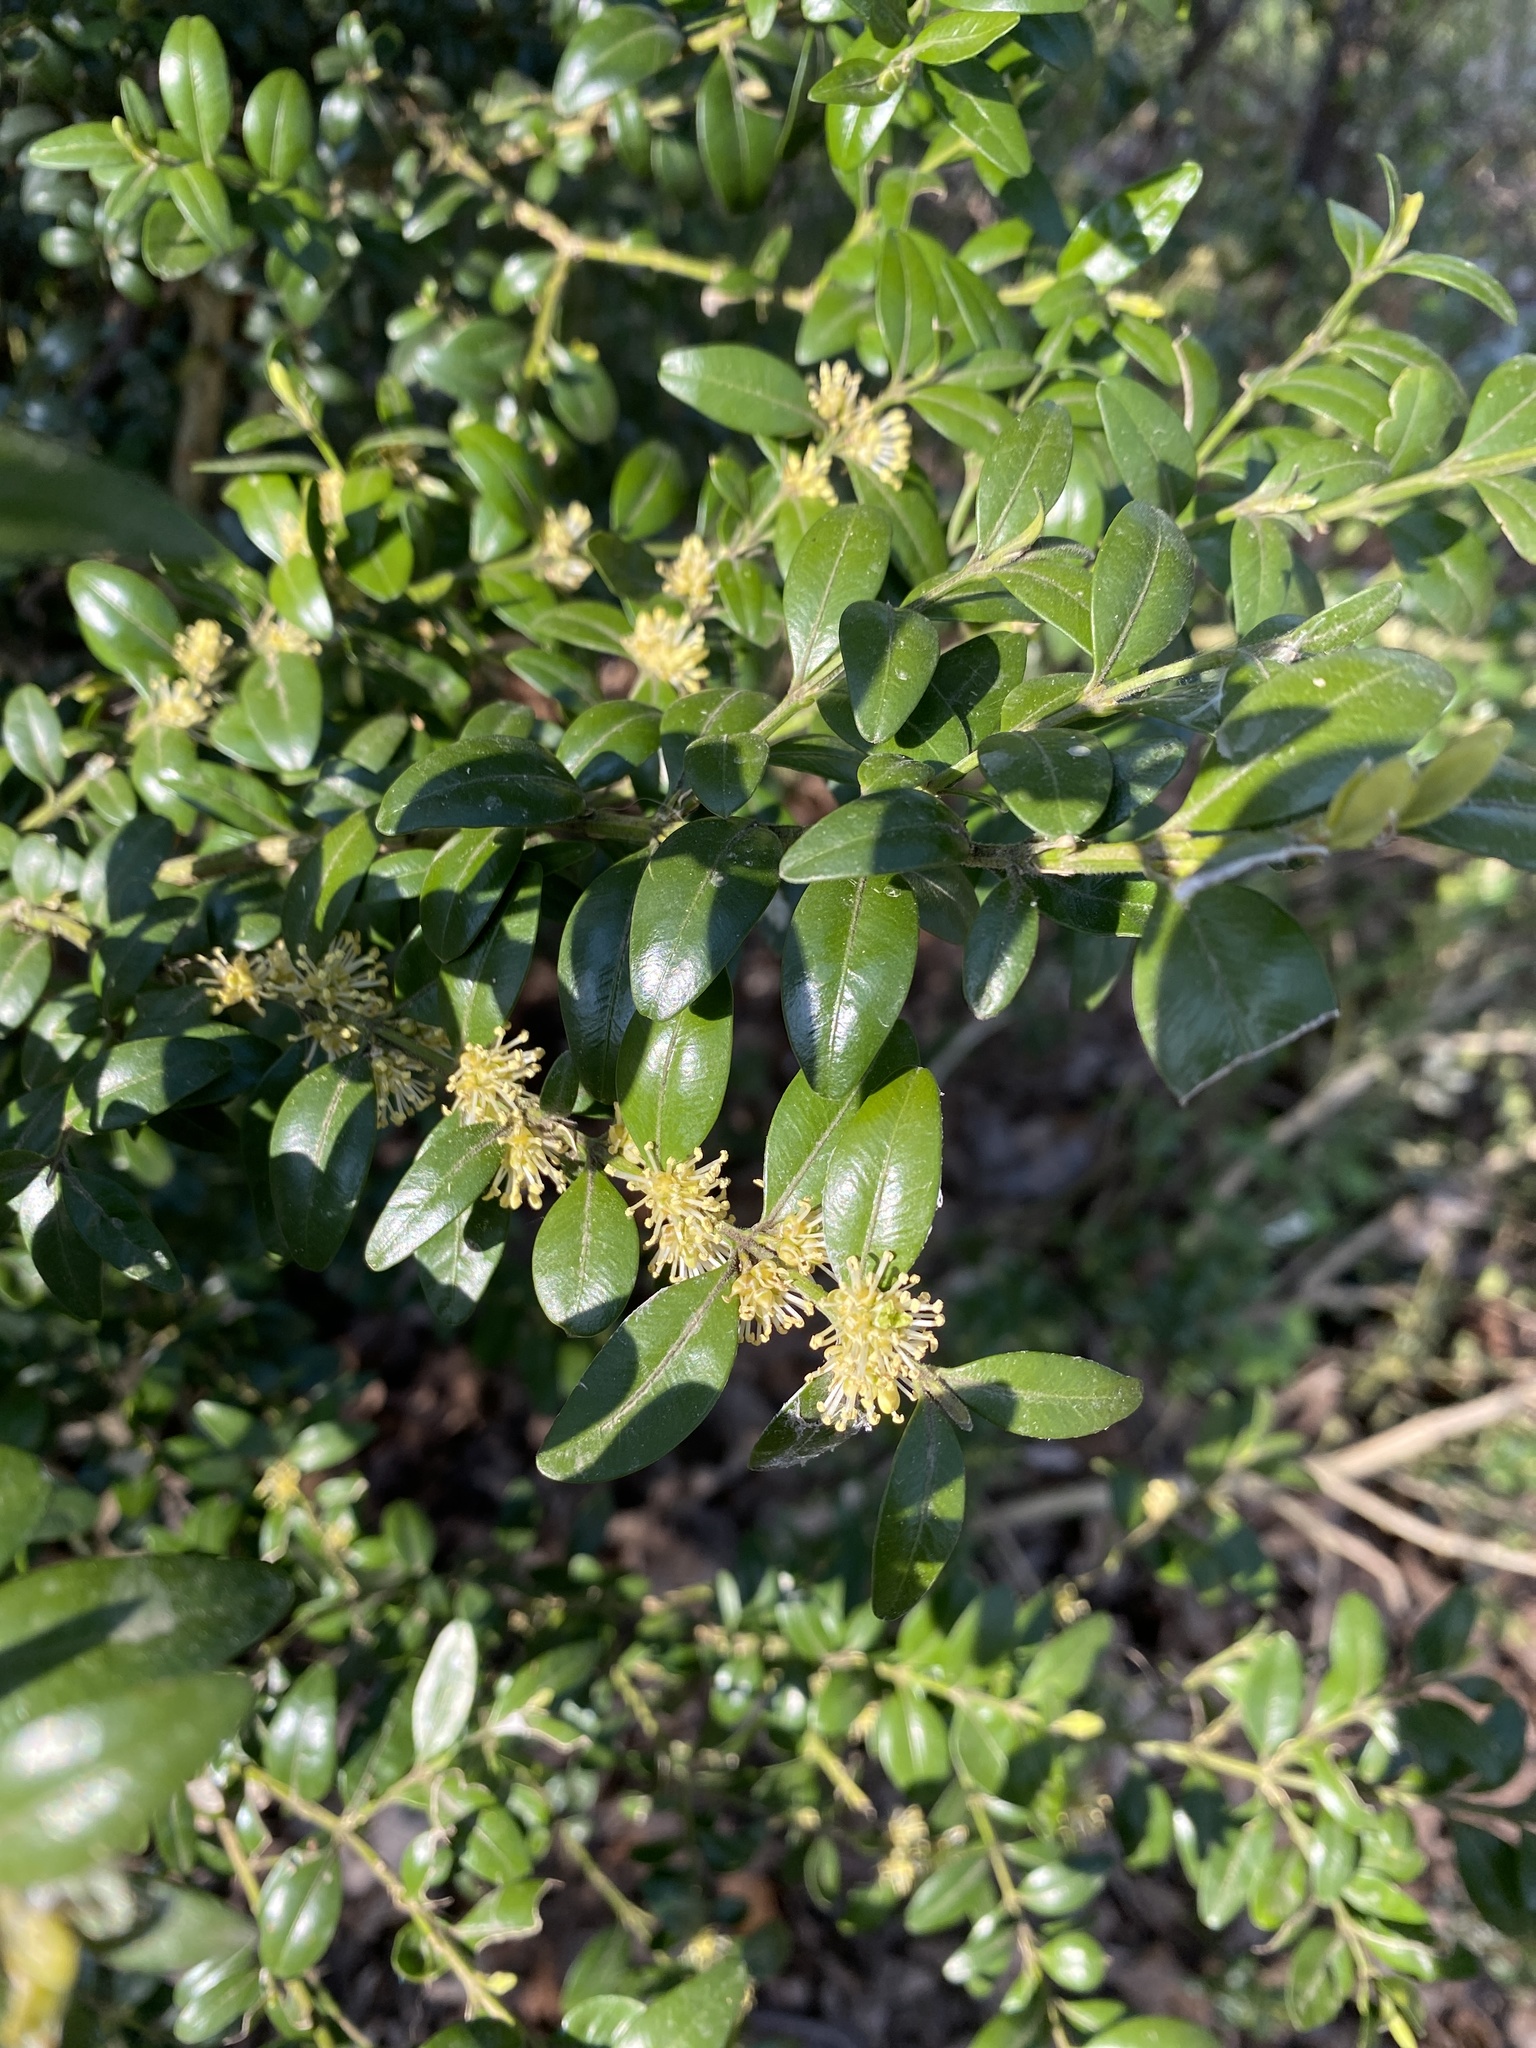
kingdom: Plantae
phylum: Tracheophyta
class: Magnoliopsida
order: Buxales
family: Buxaceae
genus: Buxus
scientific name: Buxus sempervirens
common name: Box
